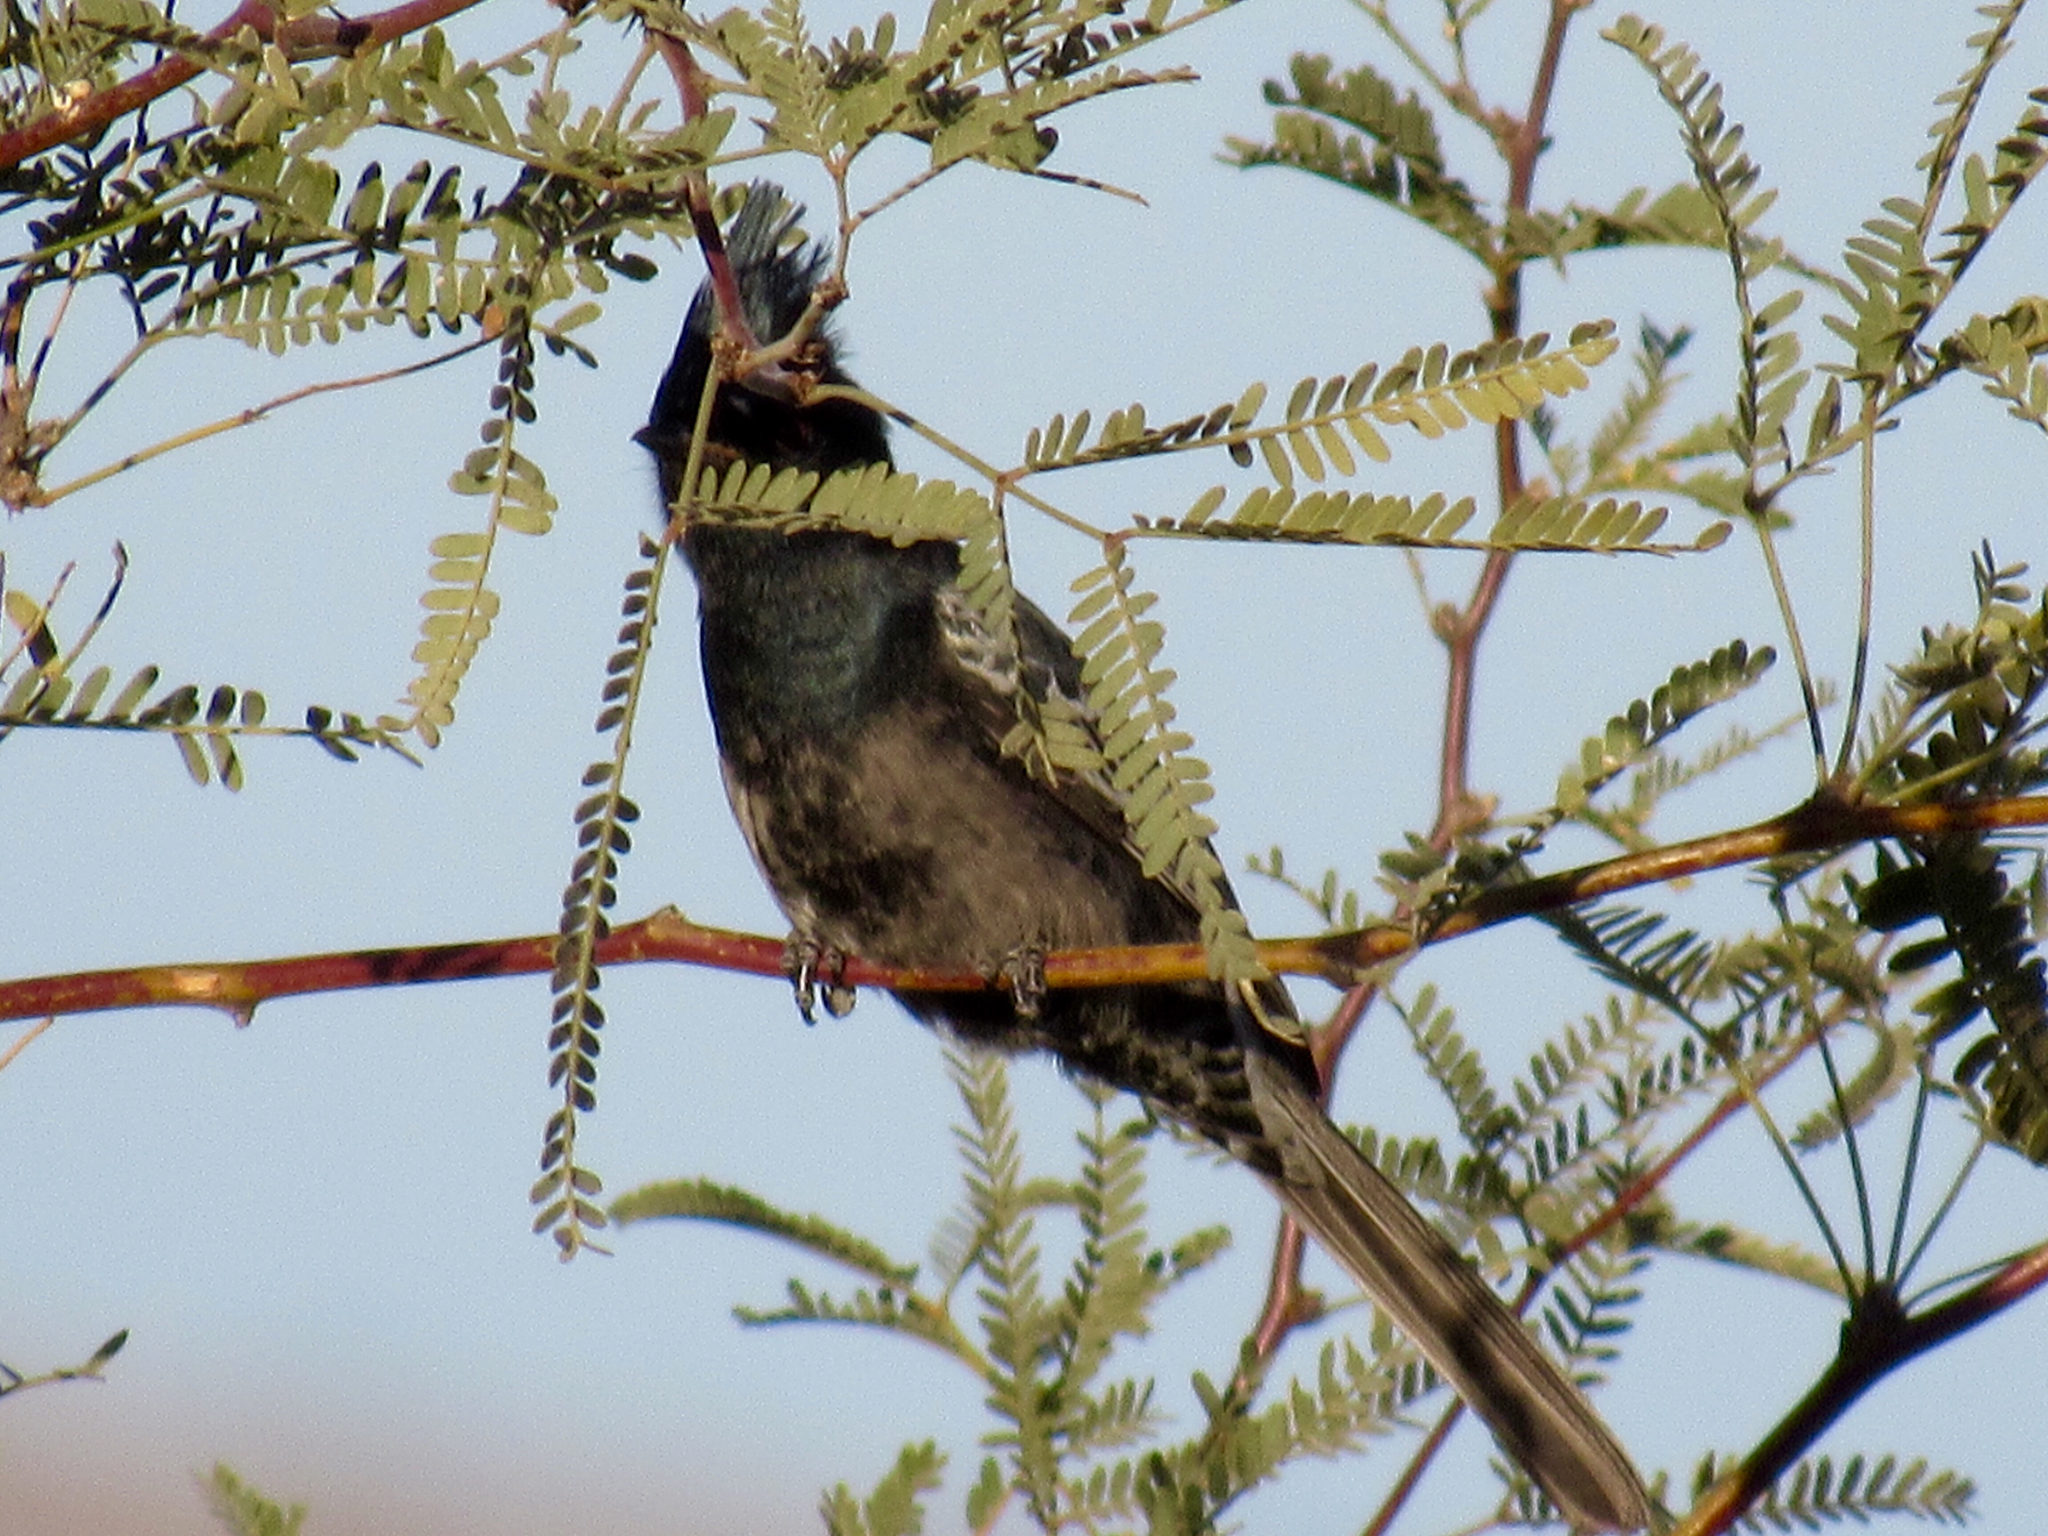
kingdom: Animalia
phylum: Chordata
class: Aves
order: Passeriformes
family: Ptilogonatidae
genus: Phainopepla
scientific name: Phainopepla nitens
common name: Phainopepla
